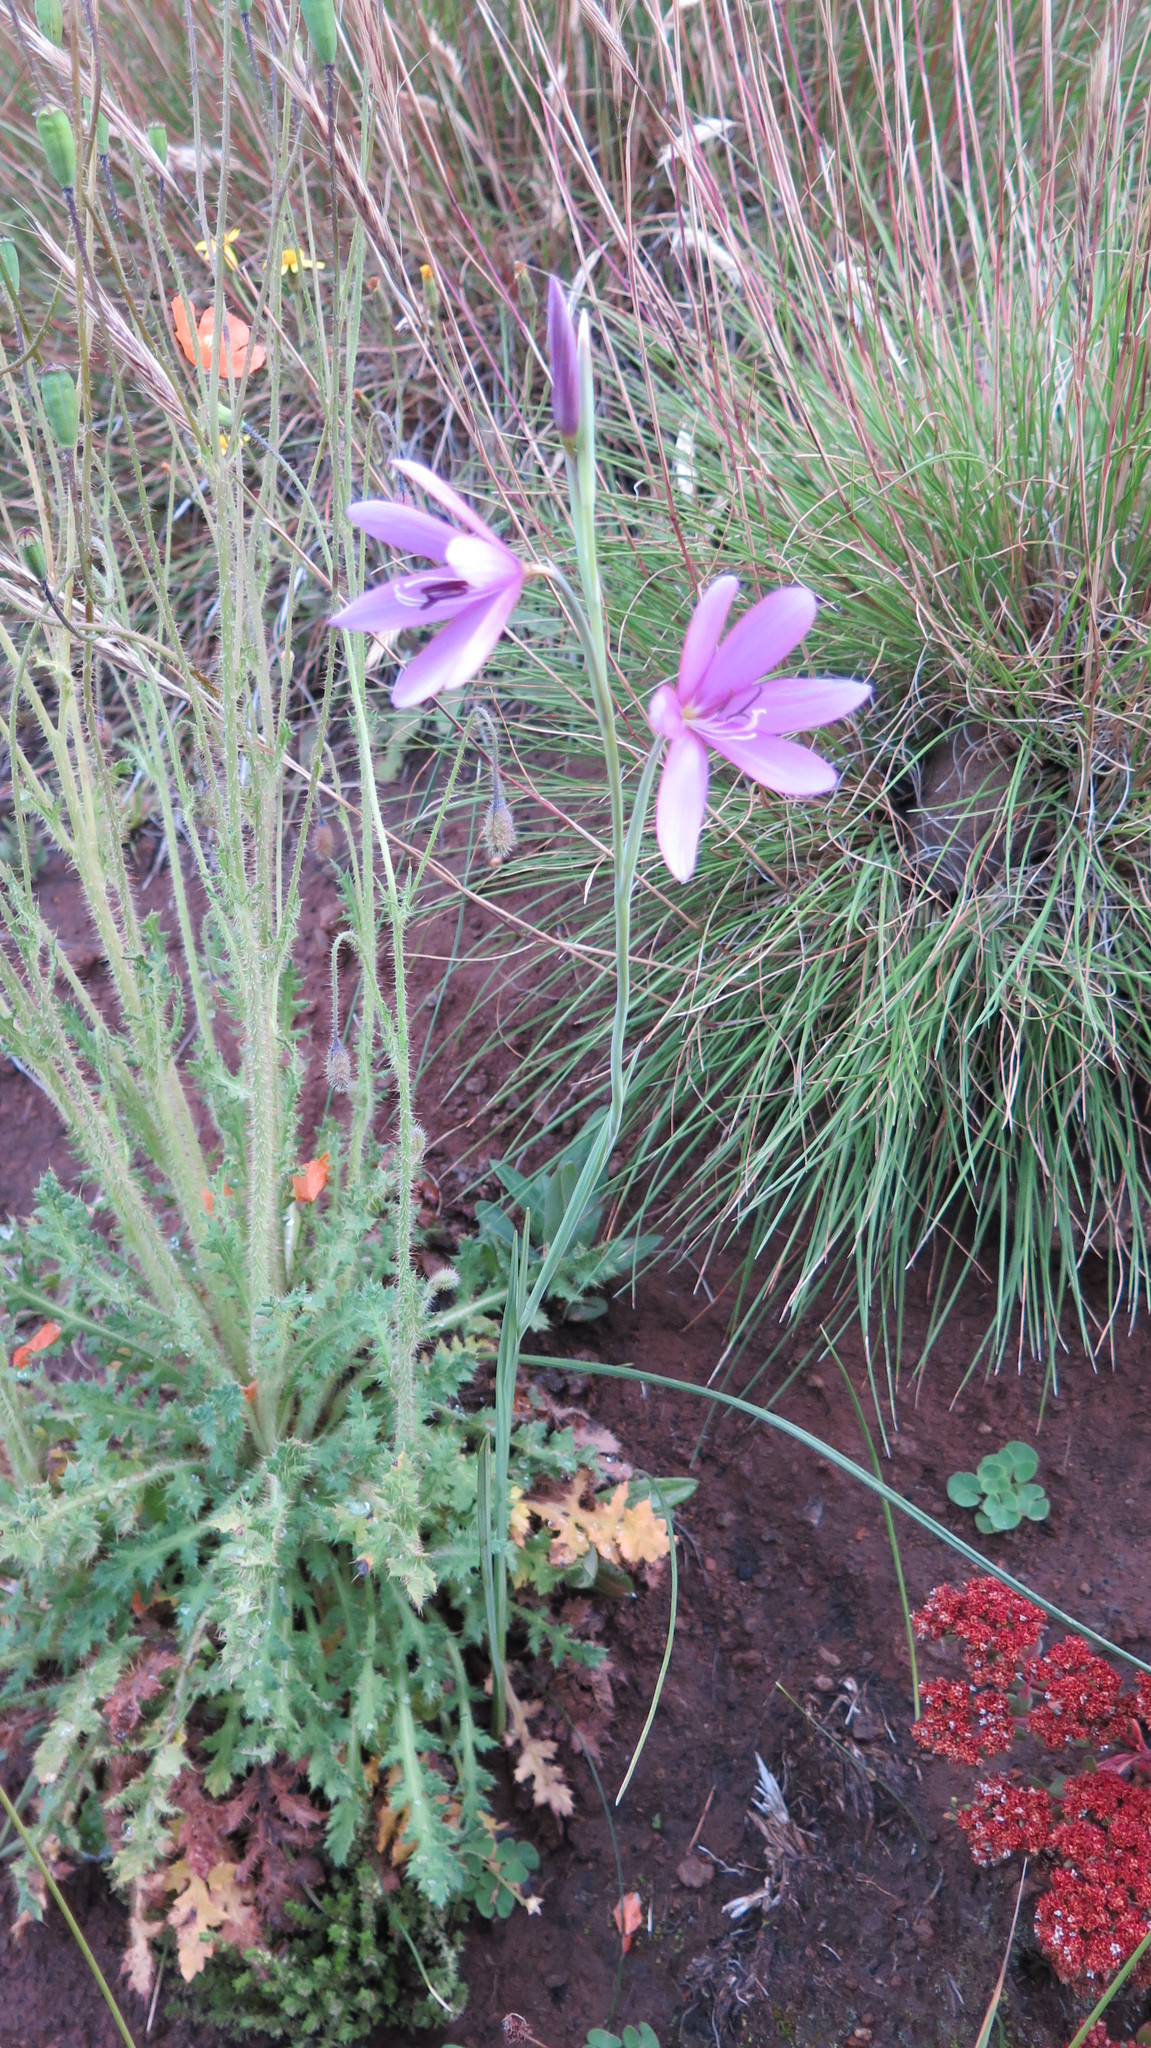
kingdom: Plantae
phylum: Tracheophyta
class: Liliopsida
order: Asparagales
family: Iridaceae
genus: Hesperantha
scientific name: Hesperantha grandiflora
